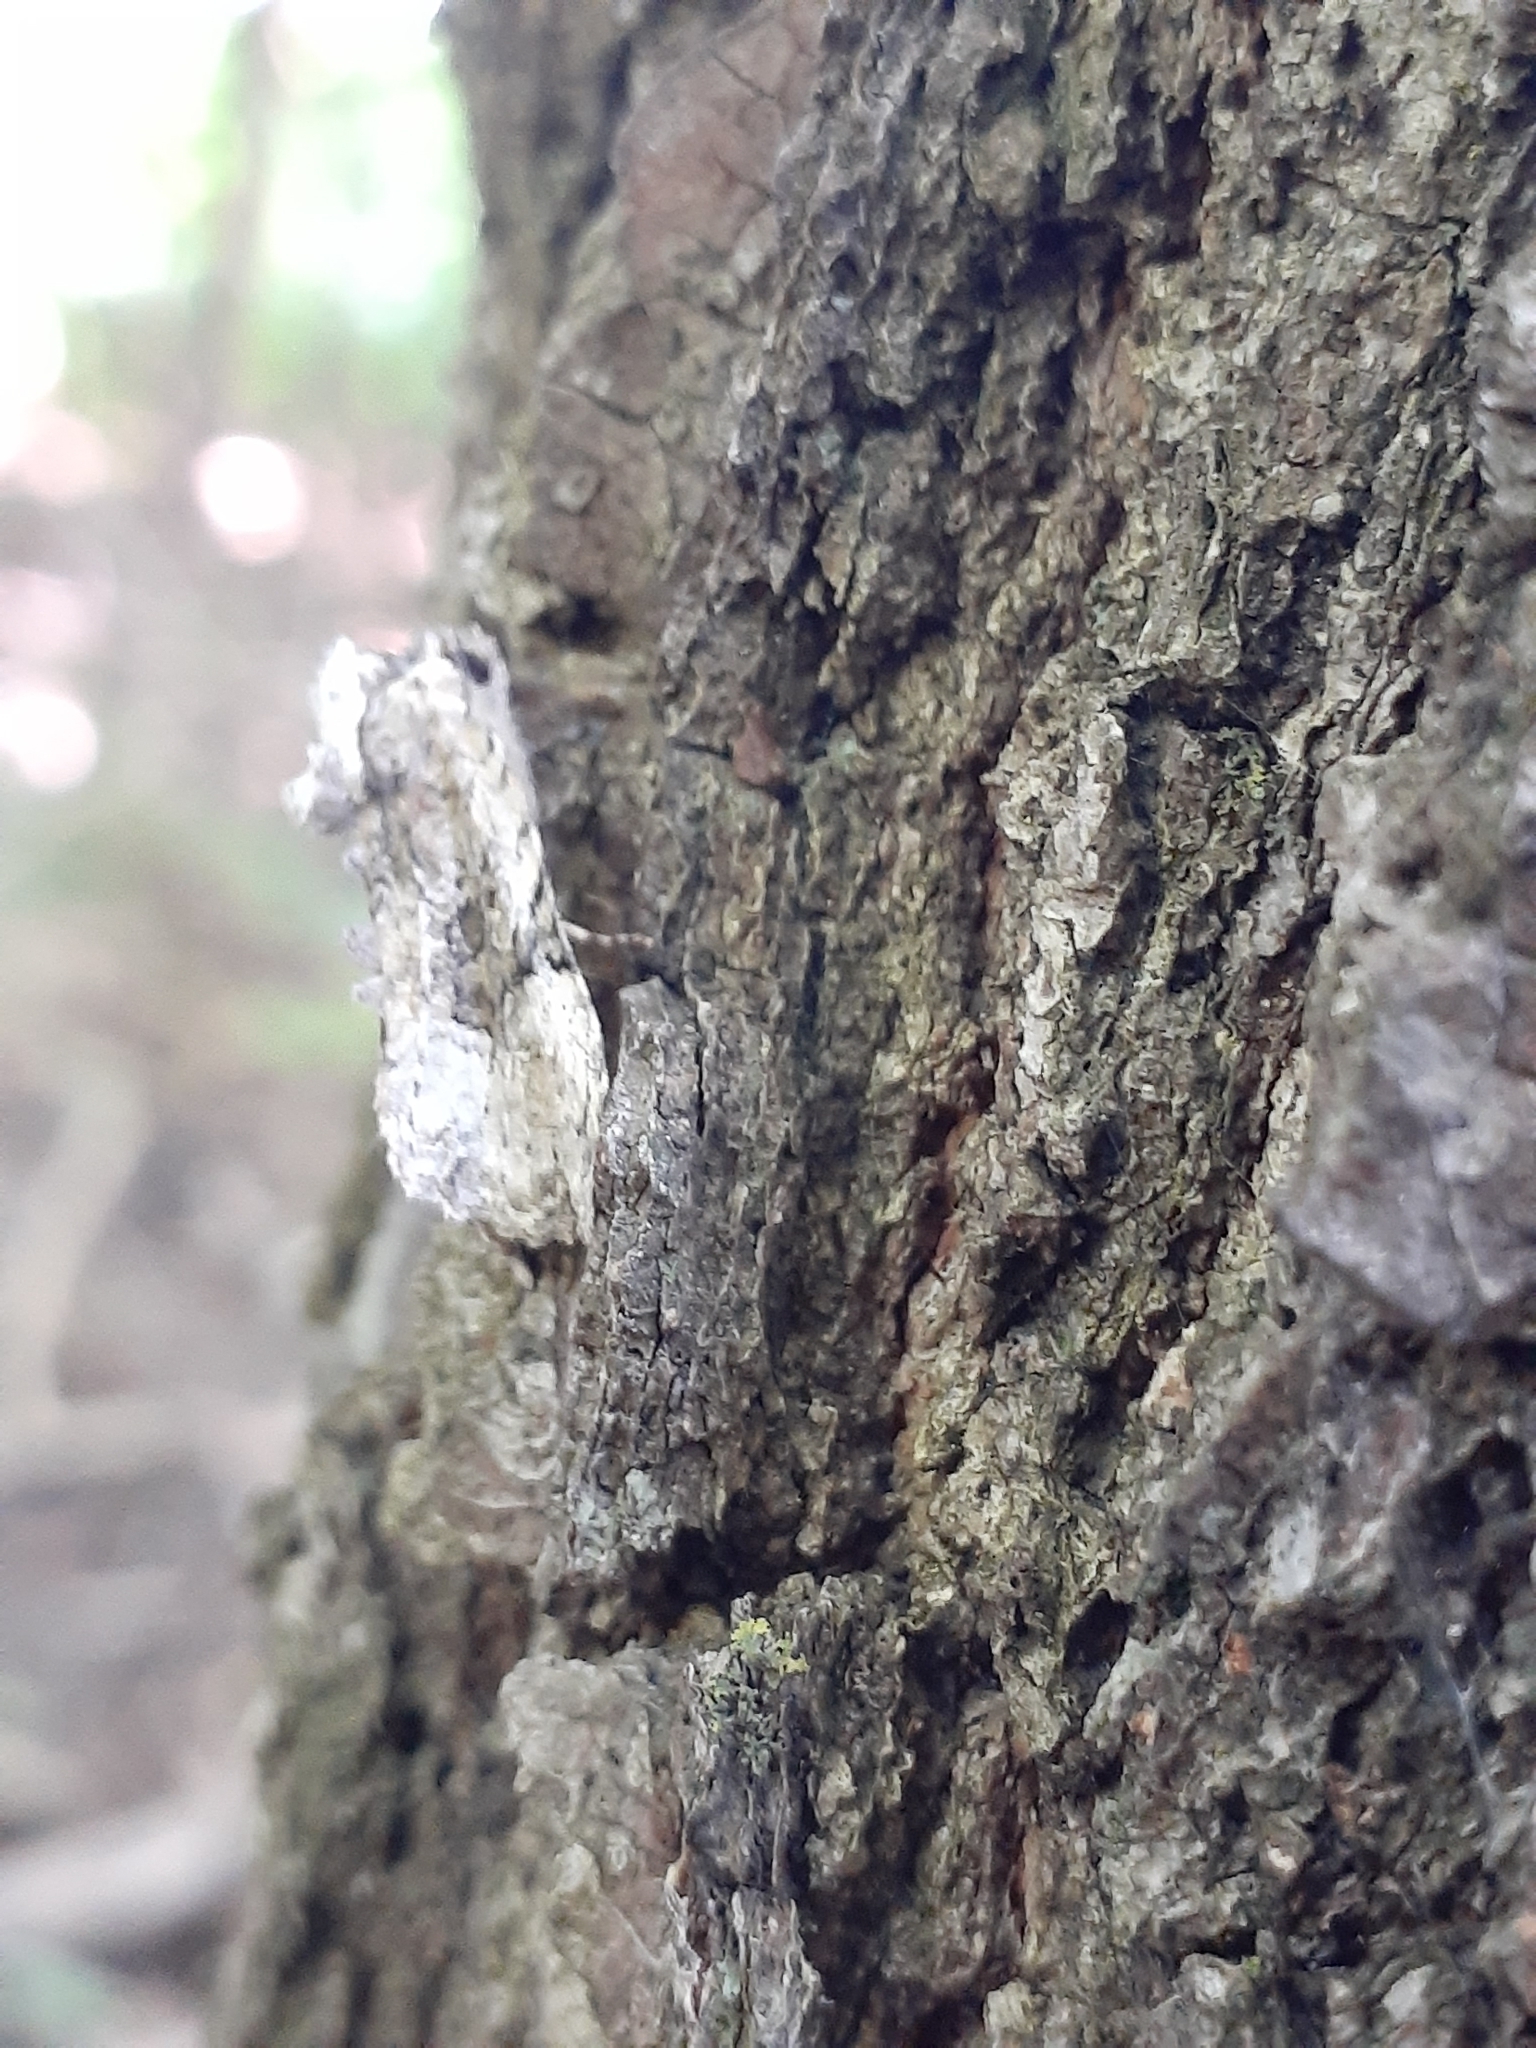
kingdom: Animalia
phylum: Arthropoda
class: Insecta
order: Lepidoptera
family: Noctuidae
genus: Oligia
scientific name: Oligia modica
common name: Black-banded brocade
